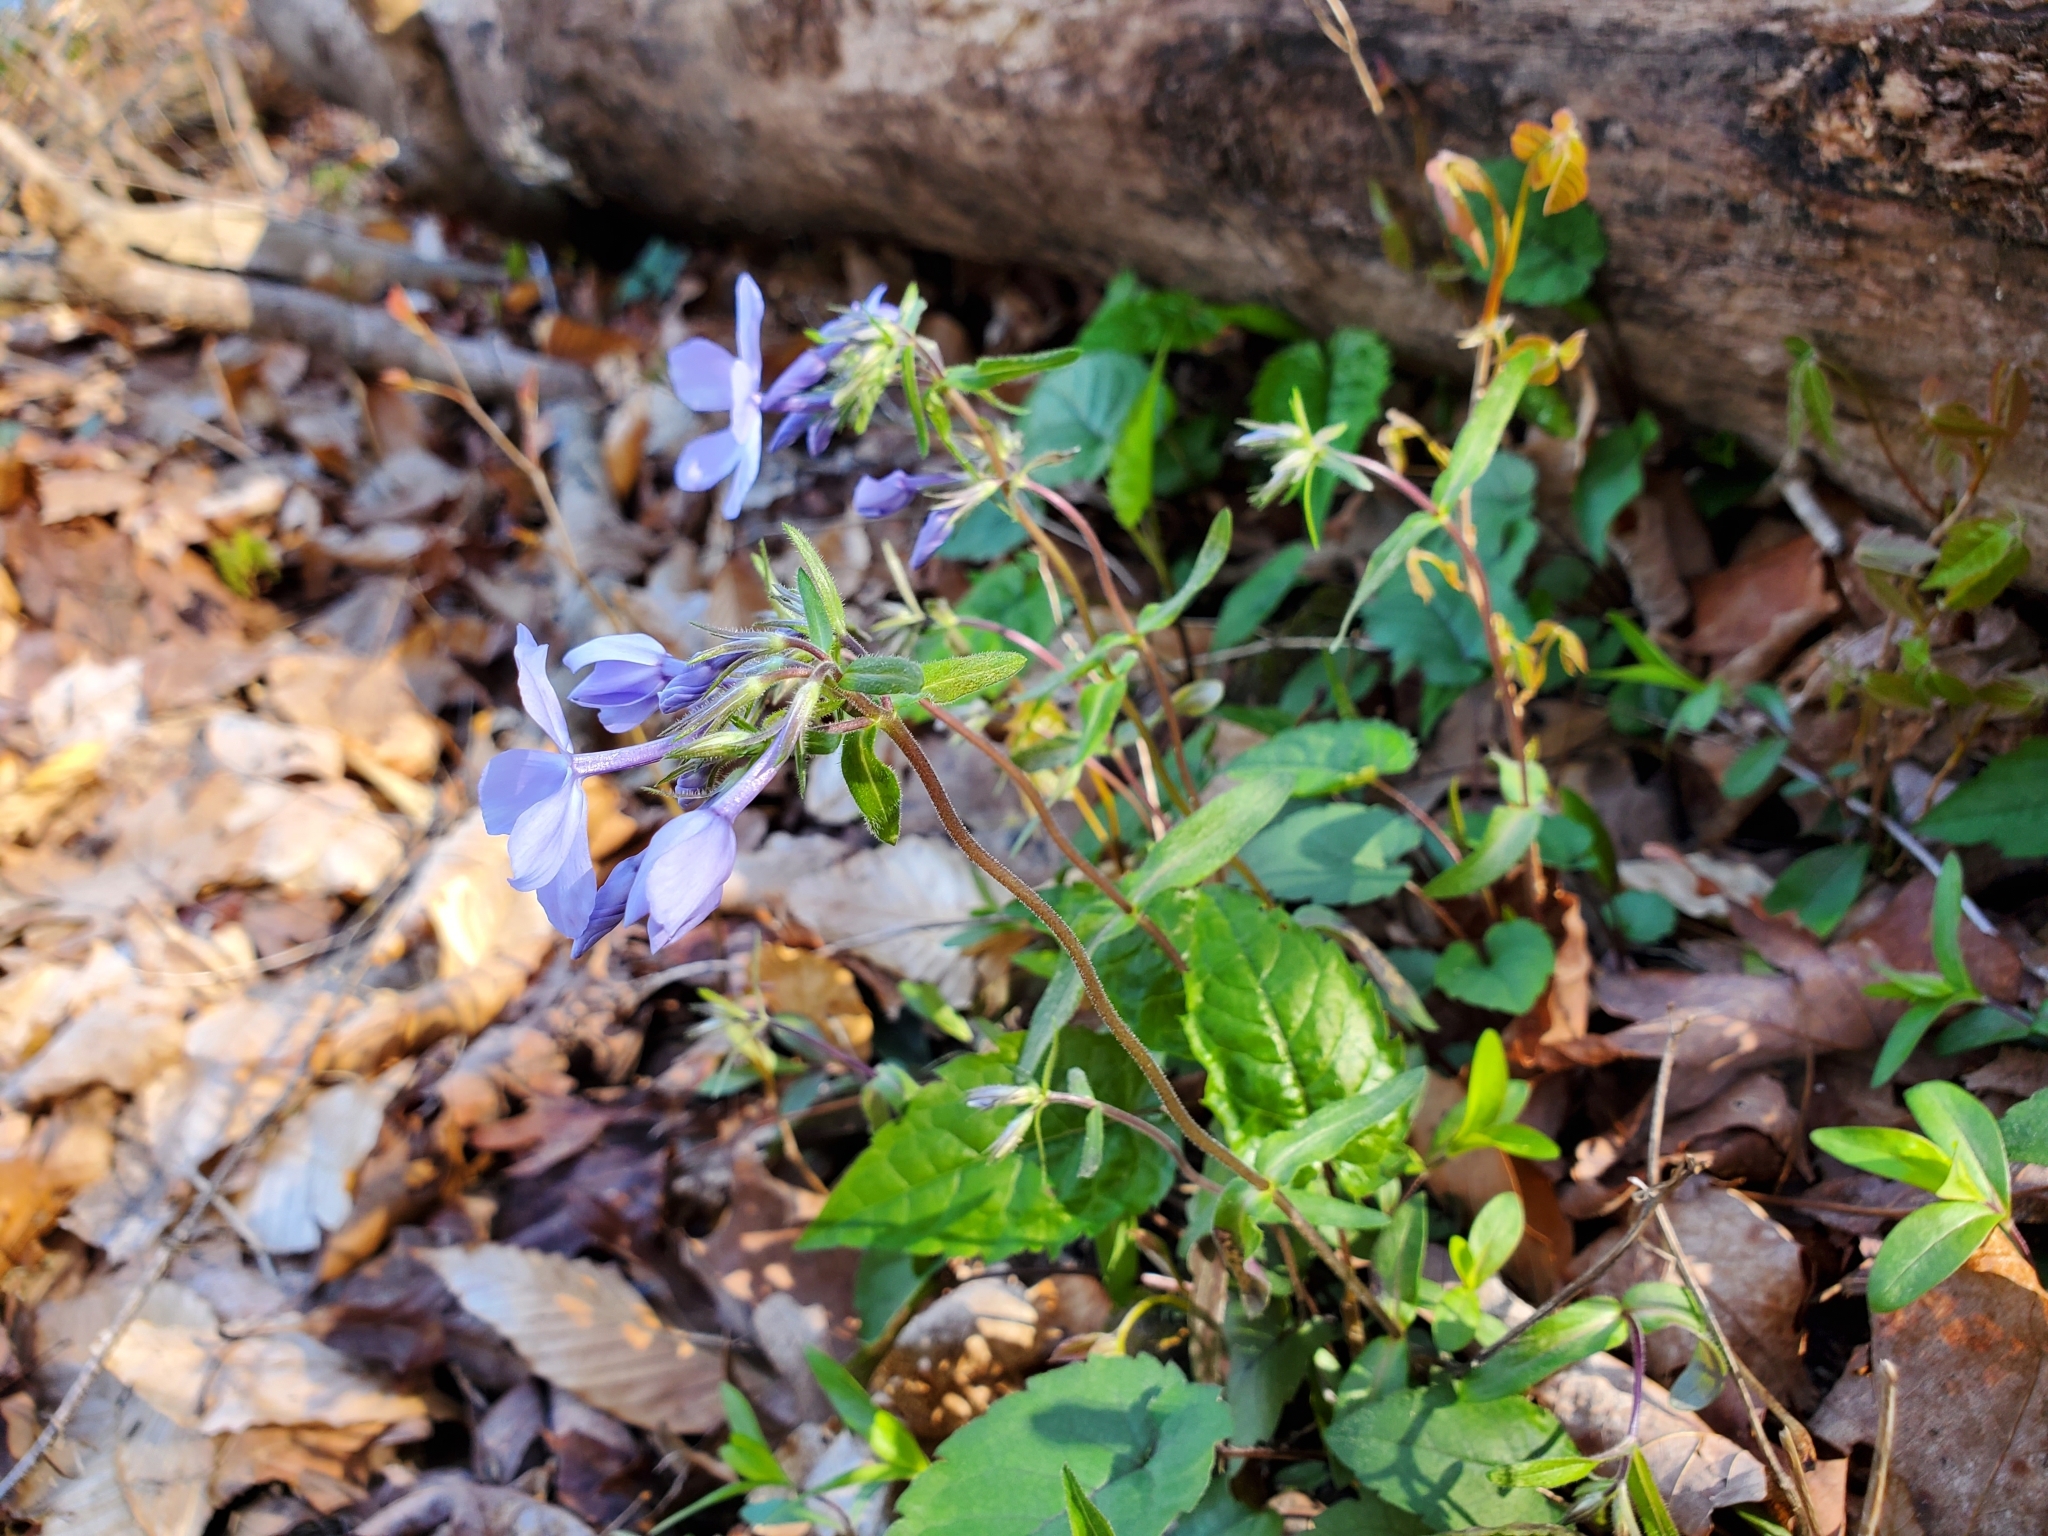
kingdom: Plantae
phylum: Tracheophyta
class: Magnoliopsida
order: Ericales
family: Polemoniaceae
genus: Phlox
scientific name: Phlox divaricata
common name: Blue phlox
